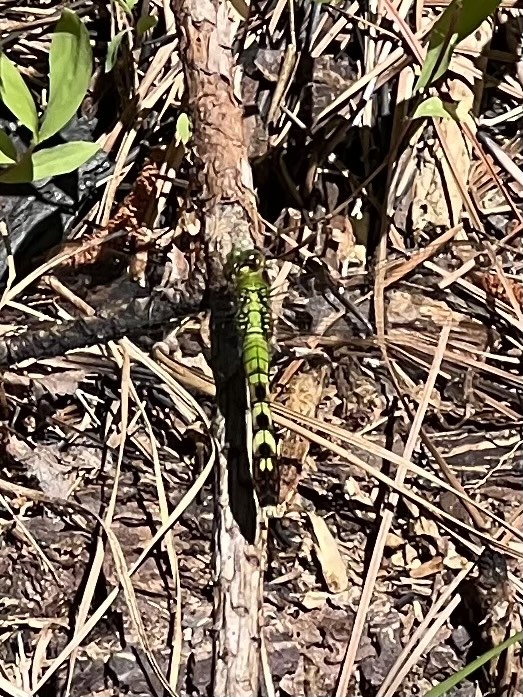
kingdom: Animalia
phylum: Arthropoda
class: Insecta
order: Odonata
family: Libellulidae
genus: Erythemis
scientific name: Erythemis simplicicollis
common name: Eastern pondhawk
